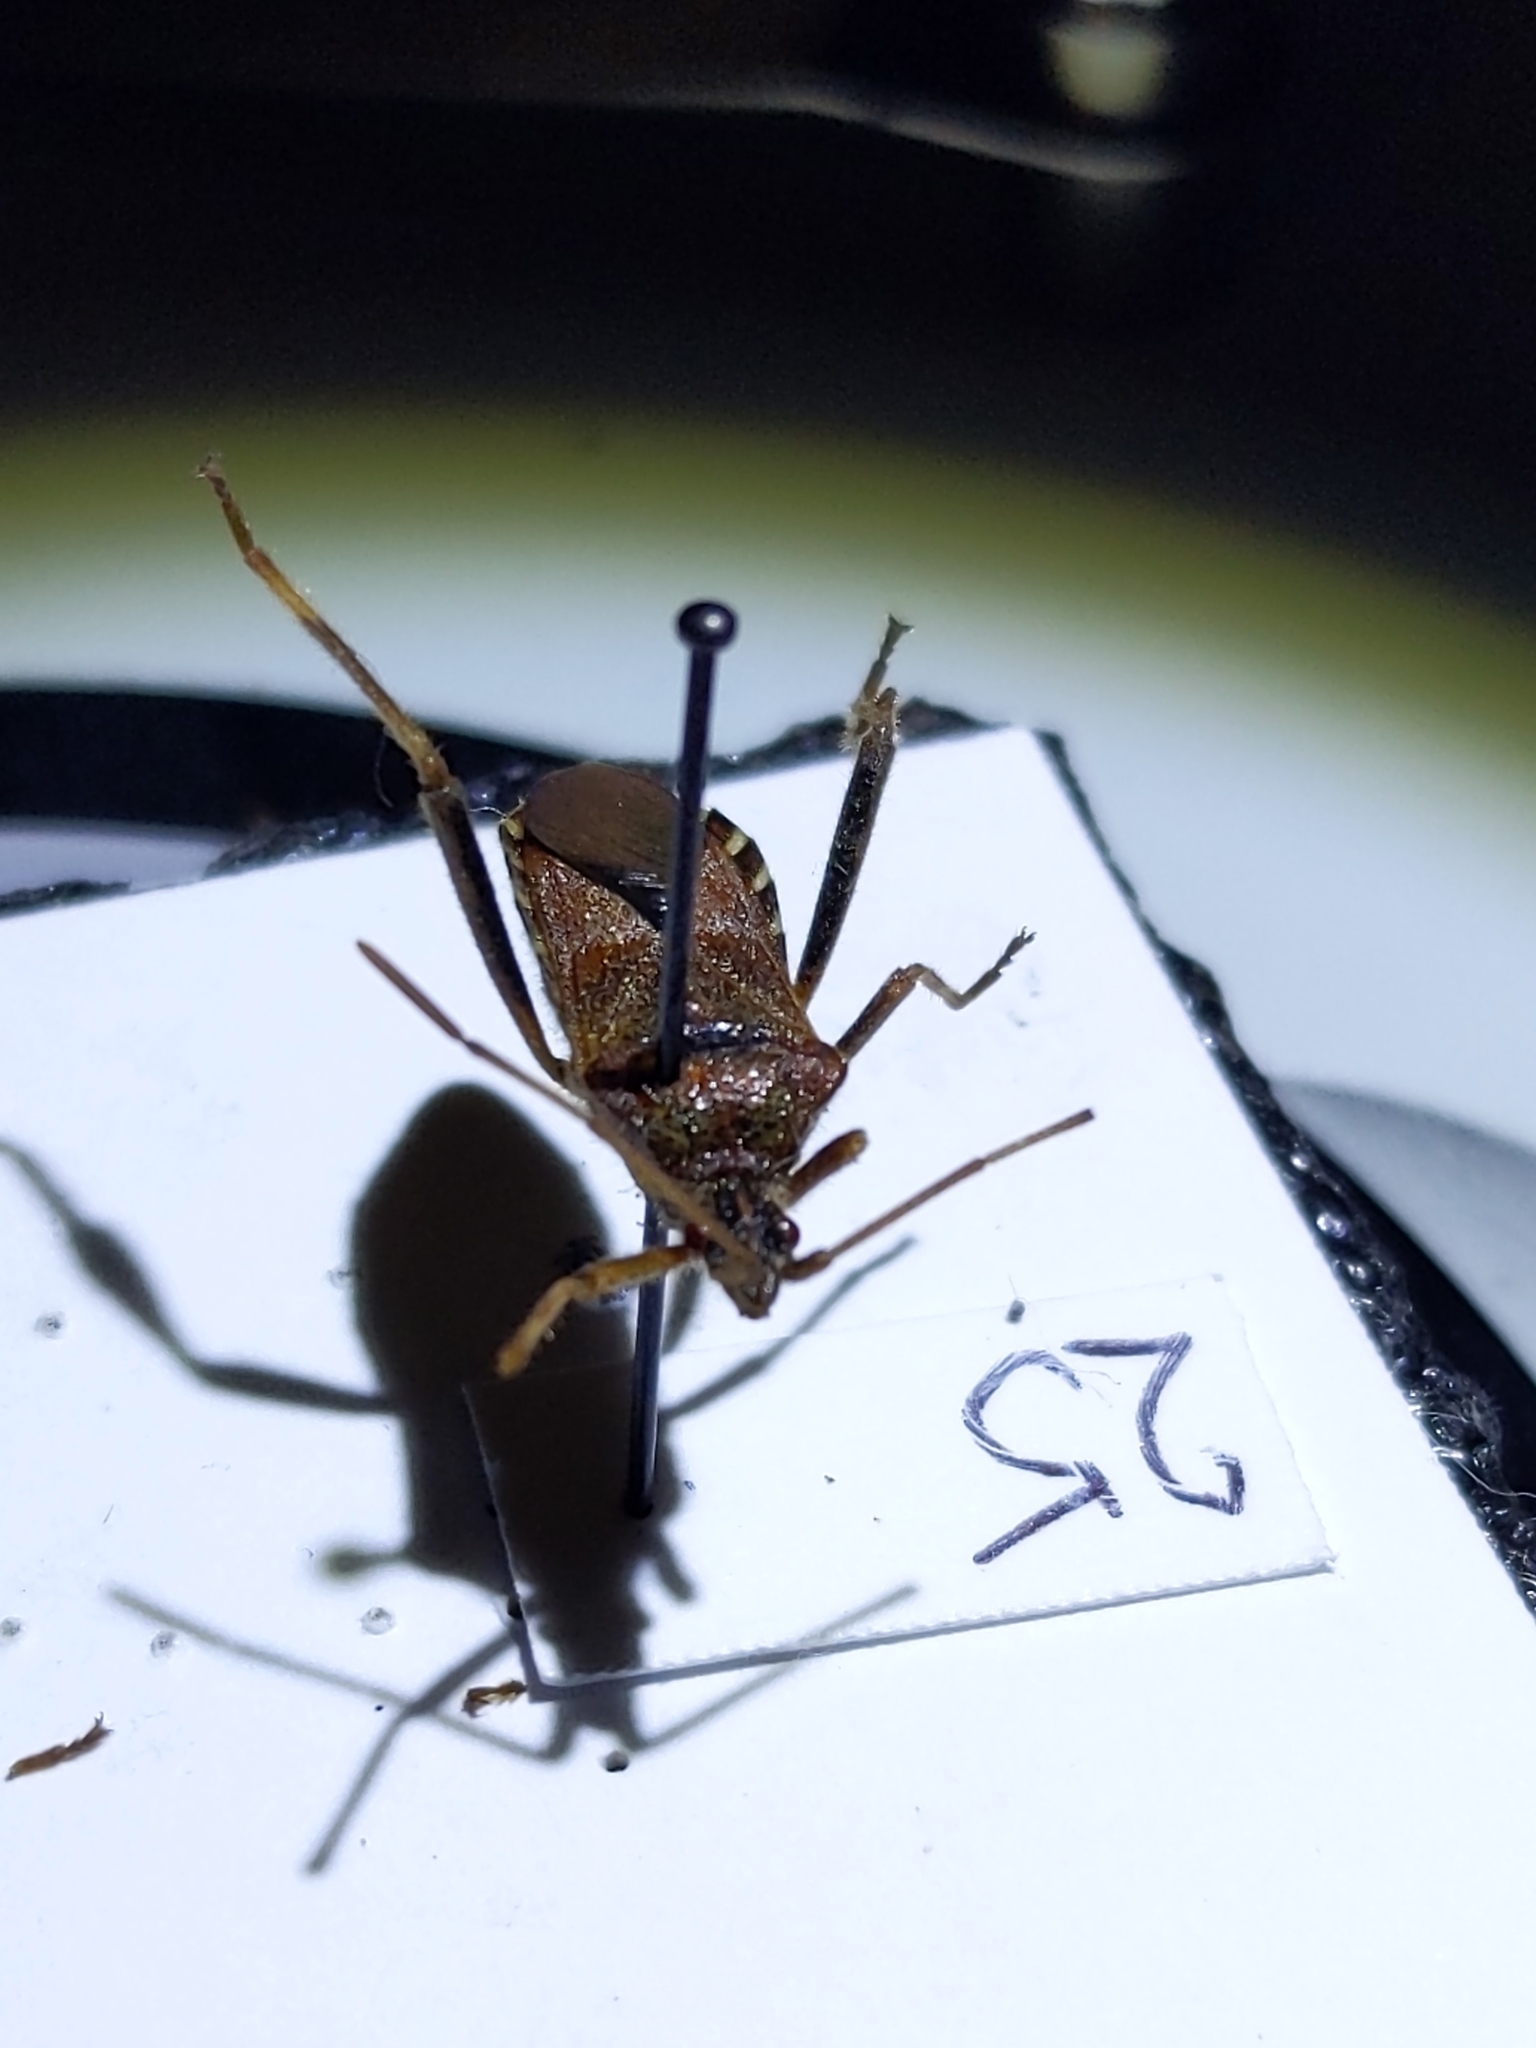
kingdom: Animalia
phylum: Arthropoda
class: Insecta
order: Hemiptera
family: Coreidae
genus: Leptoglossus
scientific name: Leptoglossus occidentalis
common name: Western conifer-seed bug
